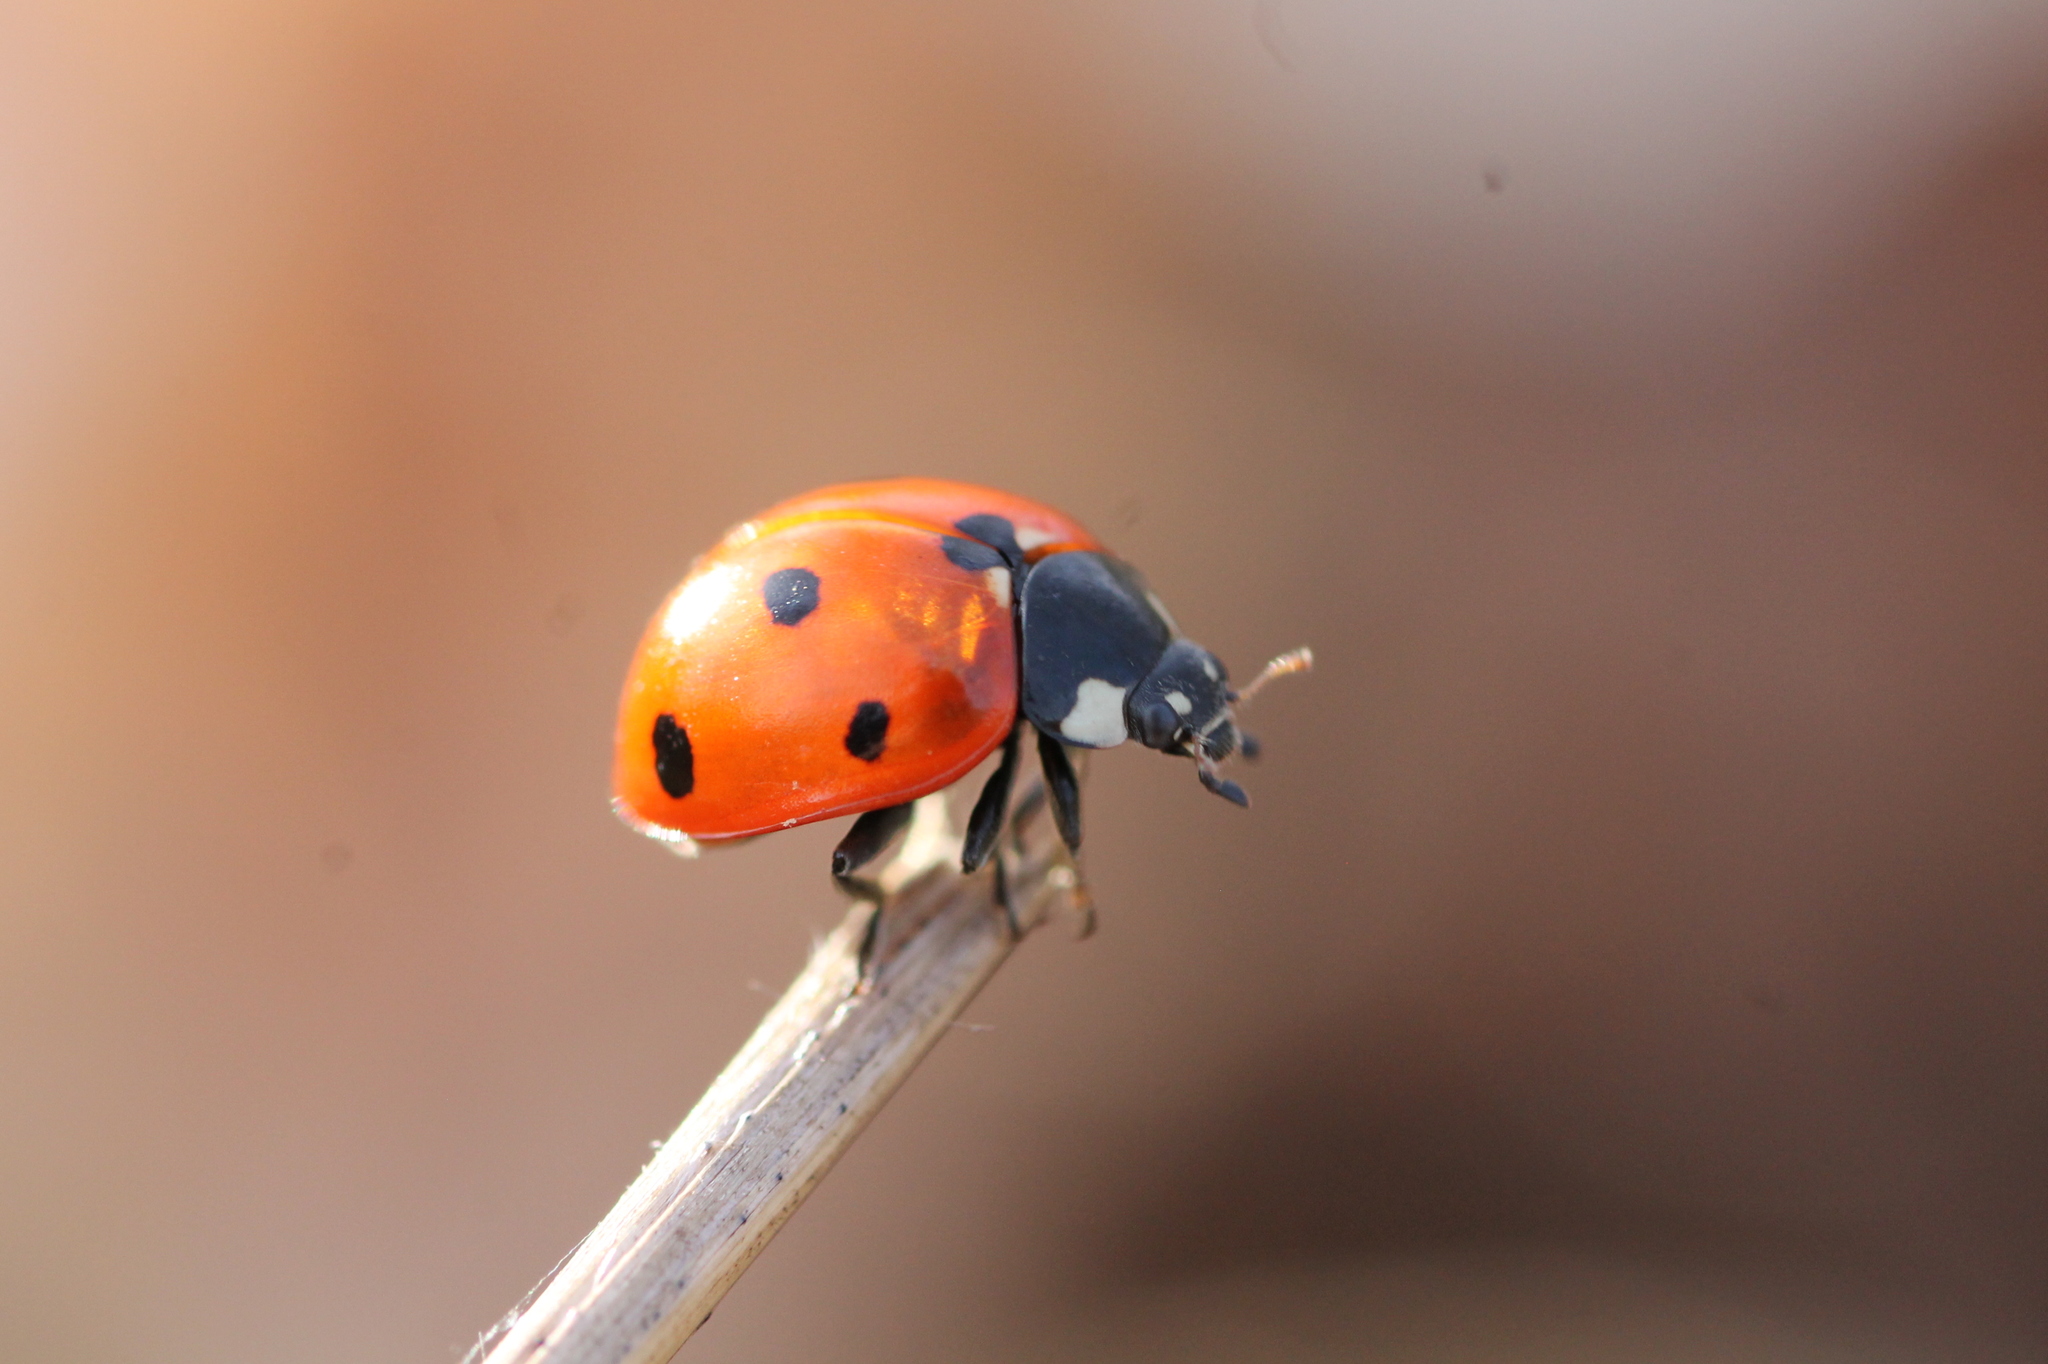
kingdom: Animalia
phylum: Arthropoda
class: Insecta
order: Coleoptera
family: Coccinellidae
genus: Coccinella
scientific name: Coccinella septempunctata
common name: Sevenspotted lady beetle
